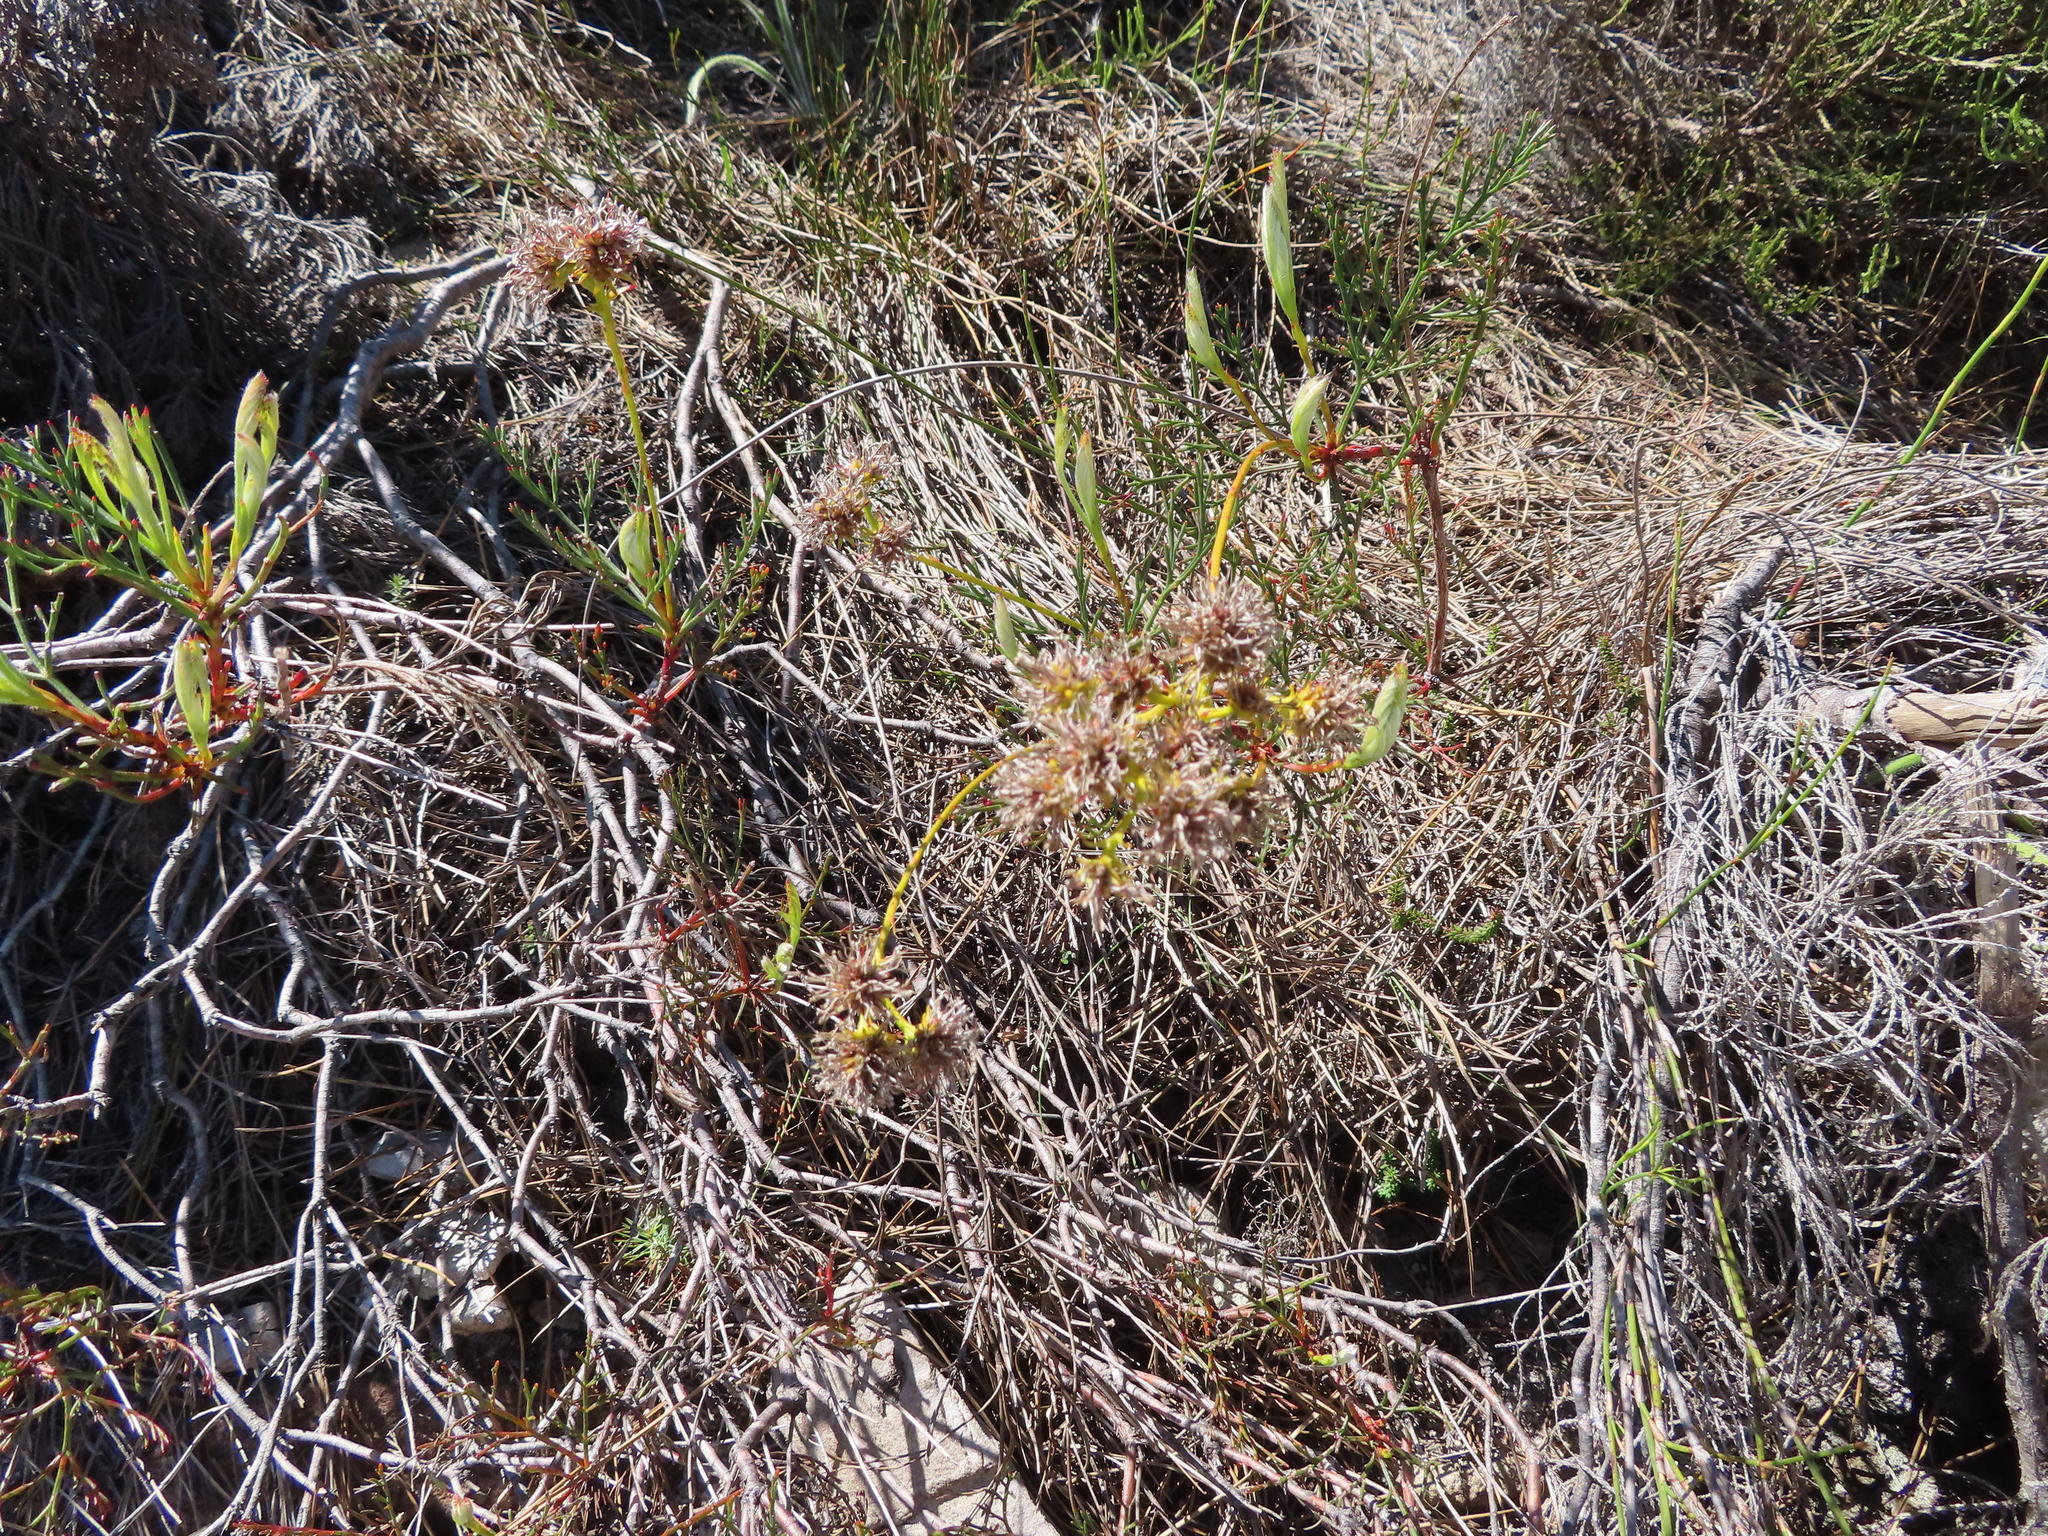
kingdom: Plantae
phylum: Tracheophyta
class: Magnoliopsida
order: Proteales
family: Proteaceae
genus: Serruria
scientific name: Serruria elongata
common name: Long-stalk spiderhead
